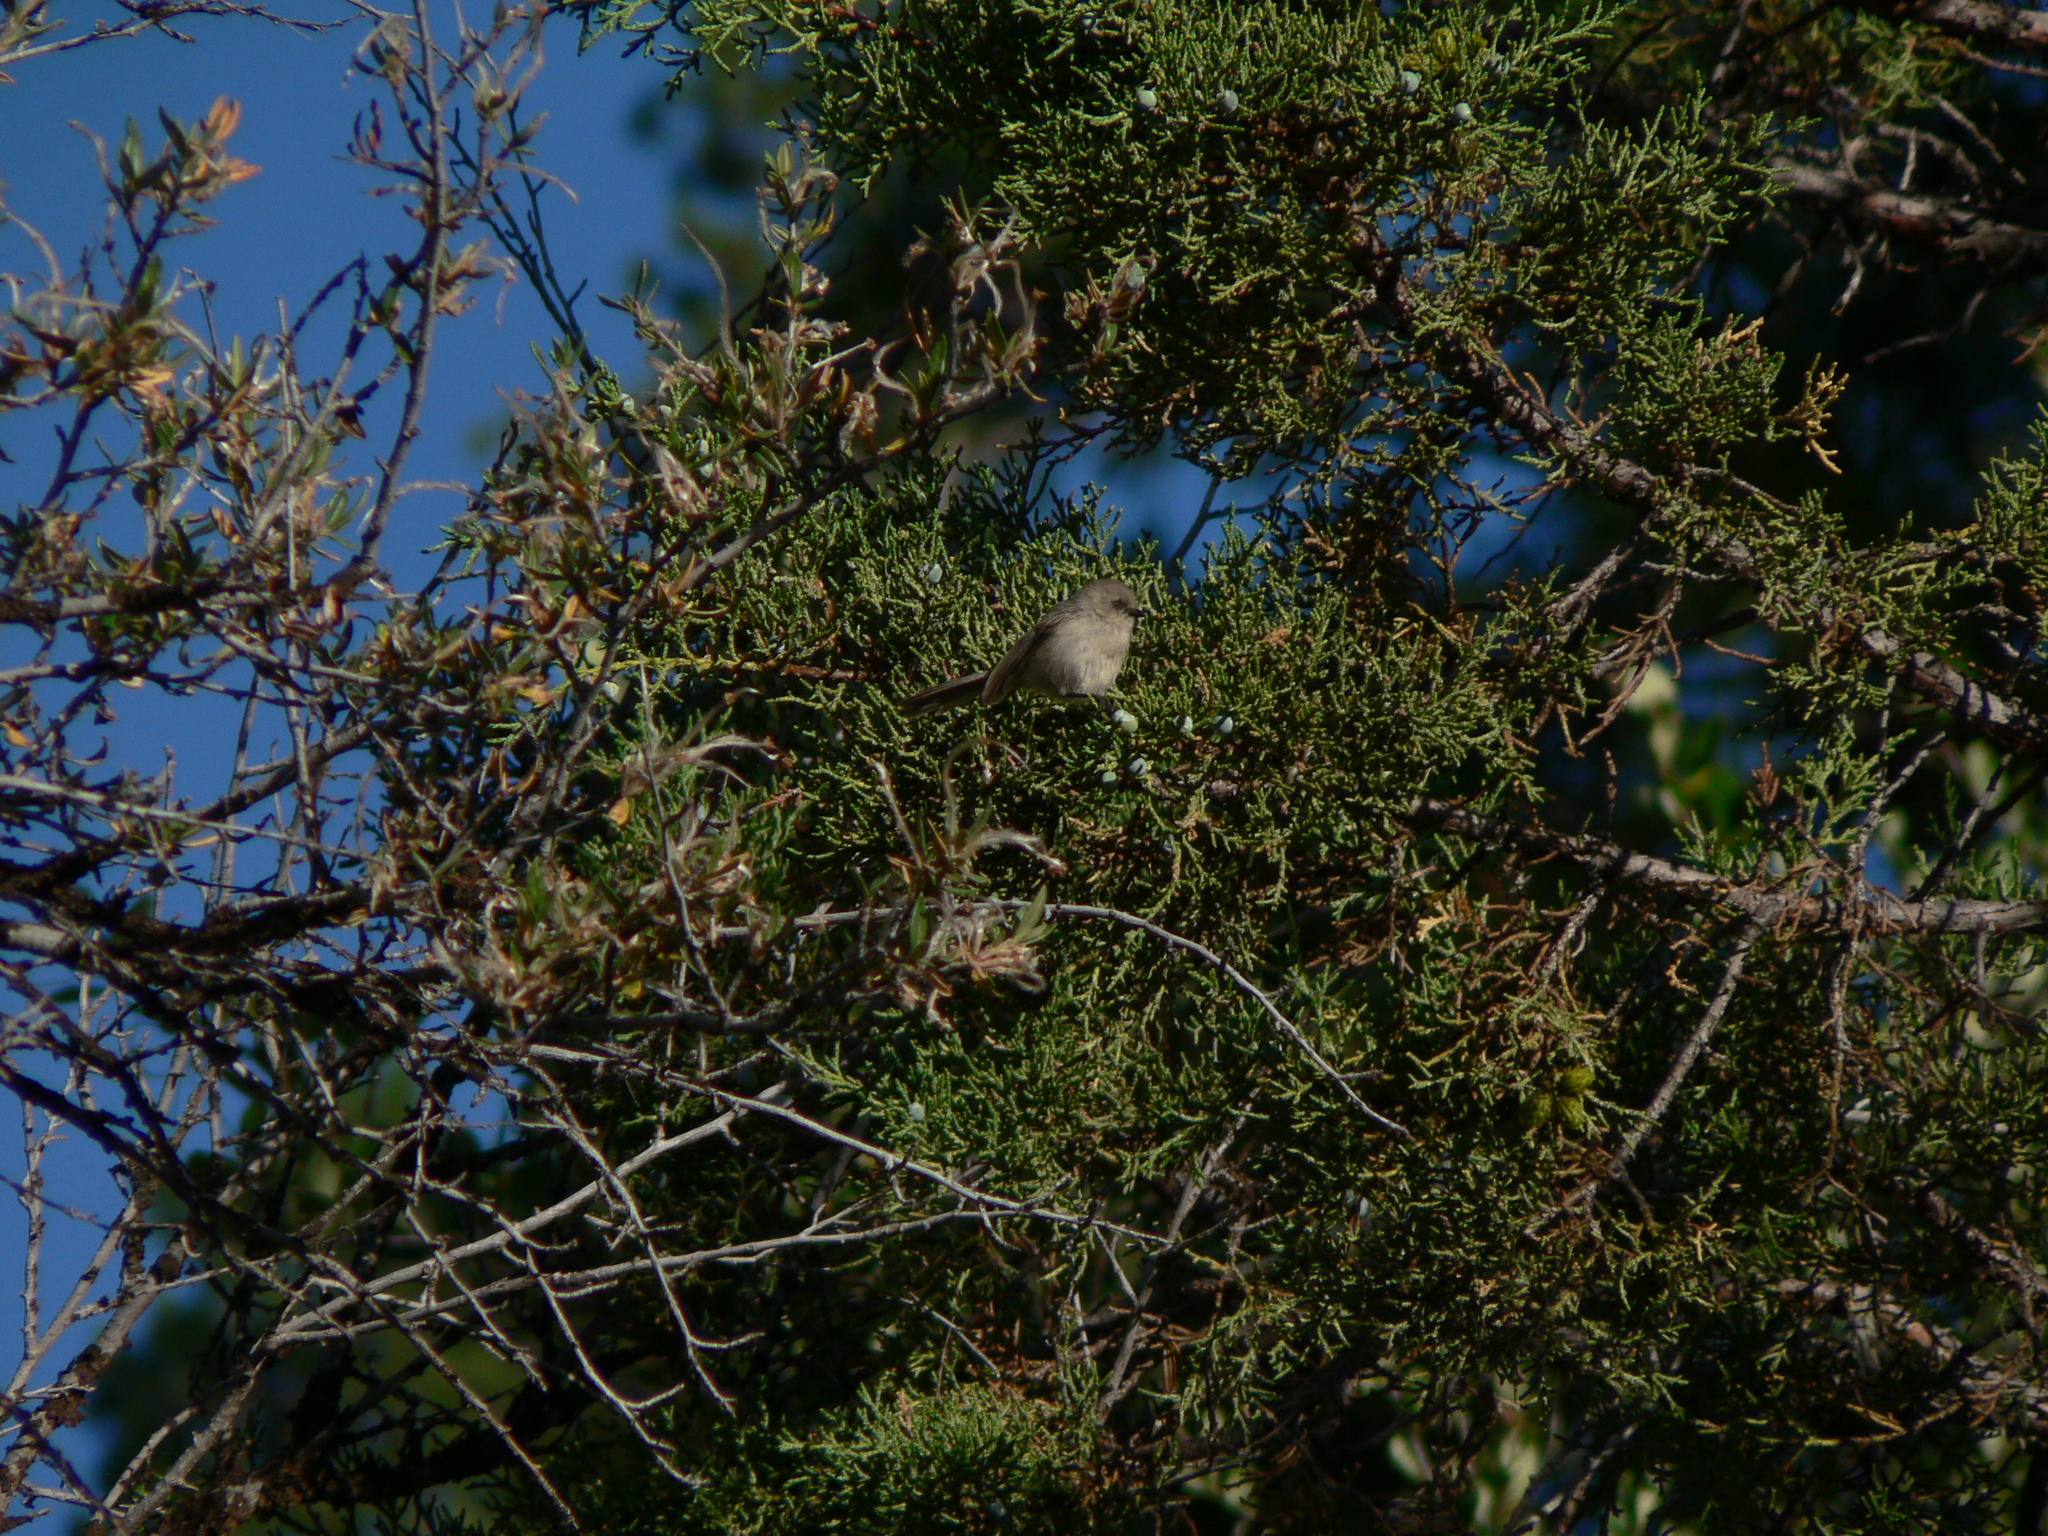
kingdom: Animalia
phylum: Chordata
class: Aves
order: Passeriformes
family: Aegithalidae
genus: Psaltriparus
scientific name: Psaltriparus minimus
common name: American bushtit
